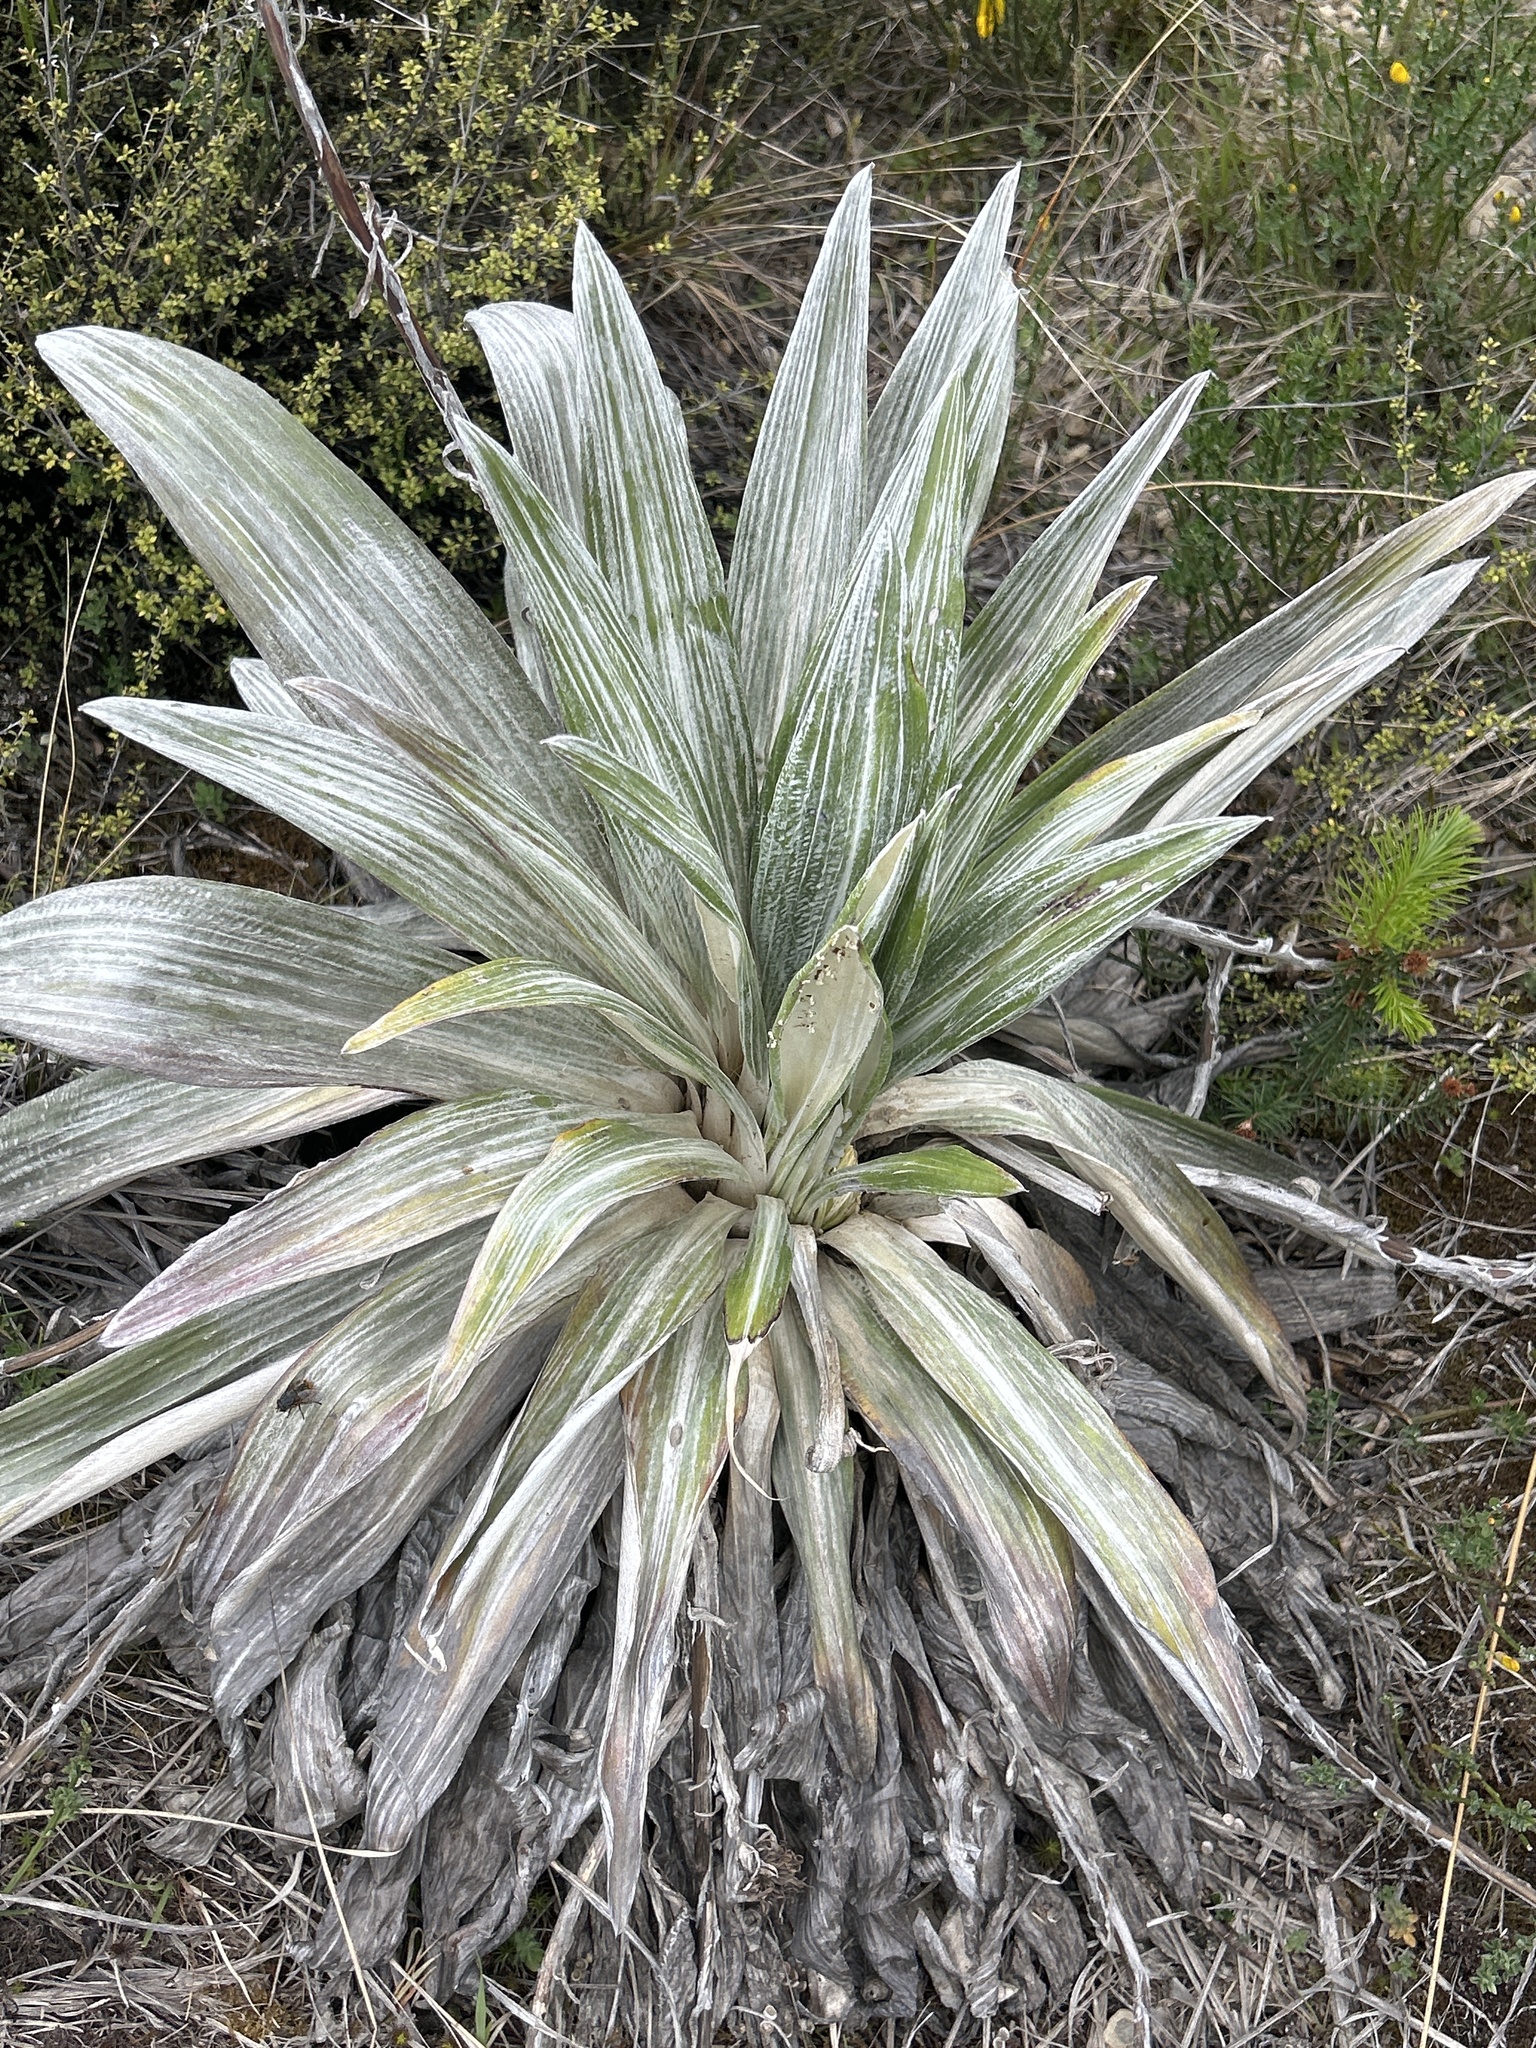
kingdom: Plantae
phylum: Tracheophyta
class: Magnoliopsida
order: Asterales
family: Asteraceae
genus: Celmisia
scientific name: Celmisia semicordata
